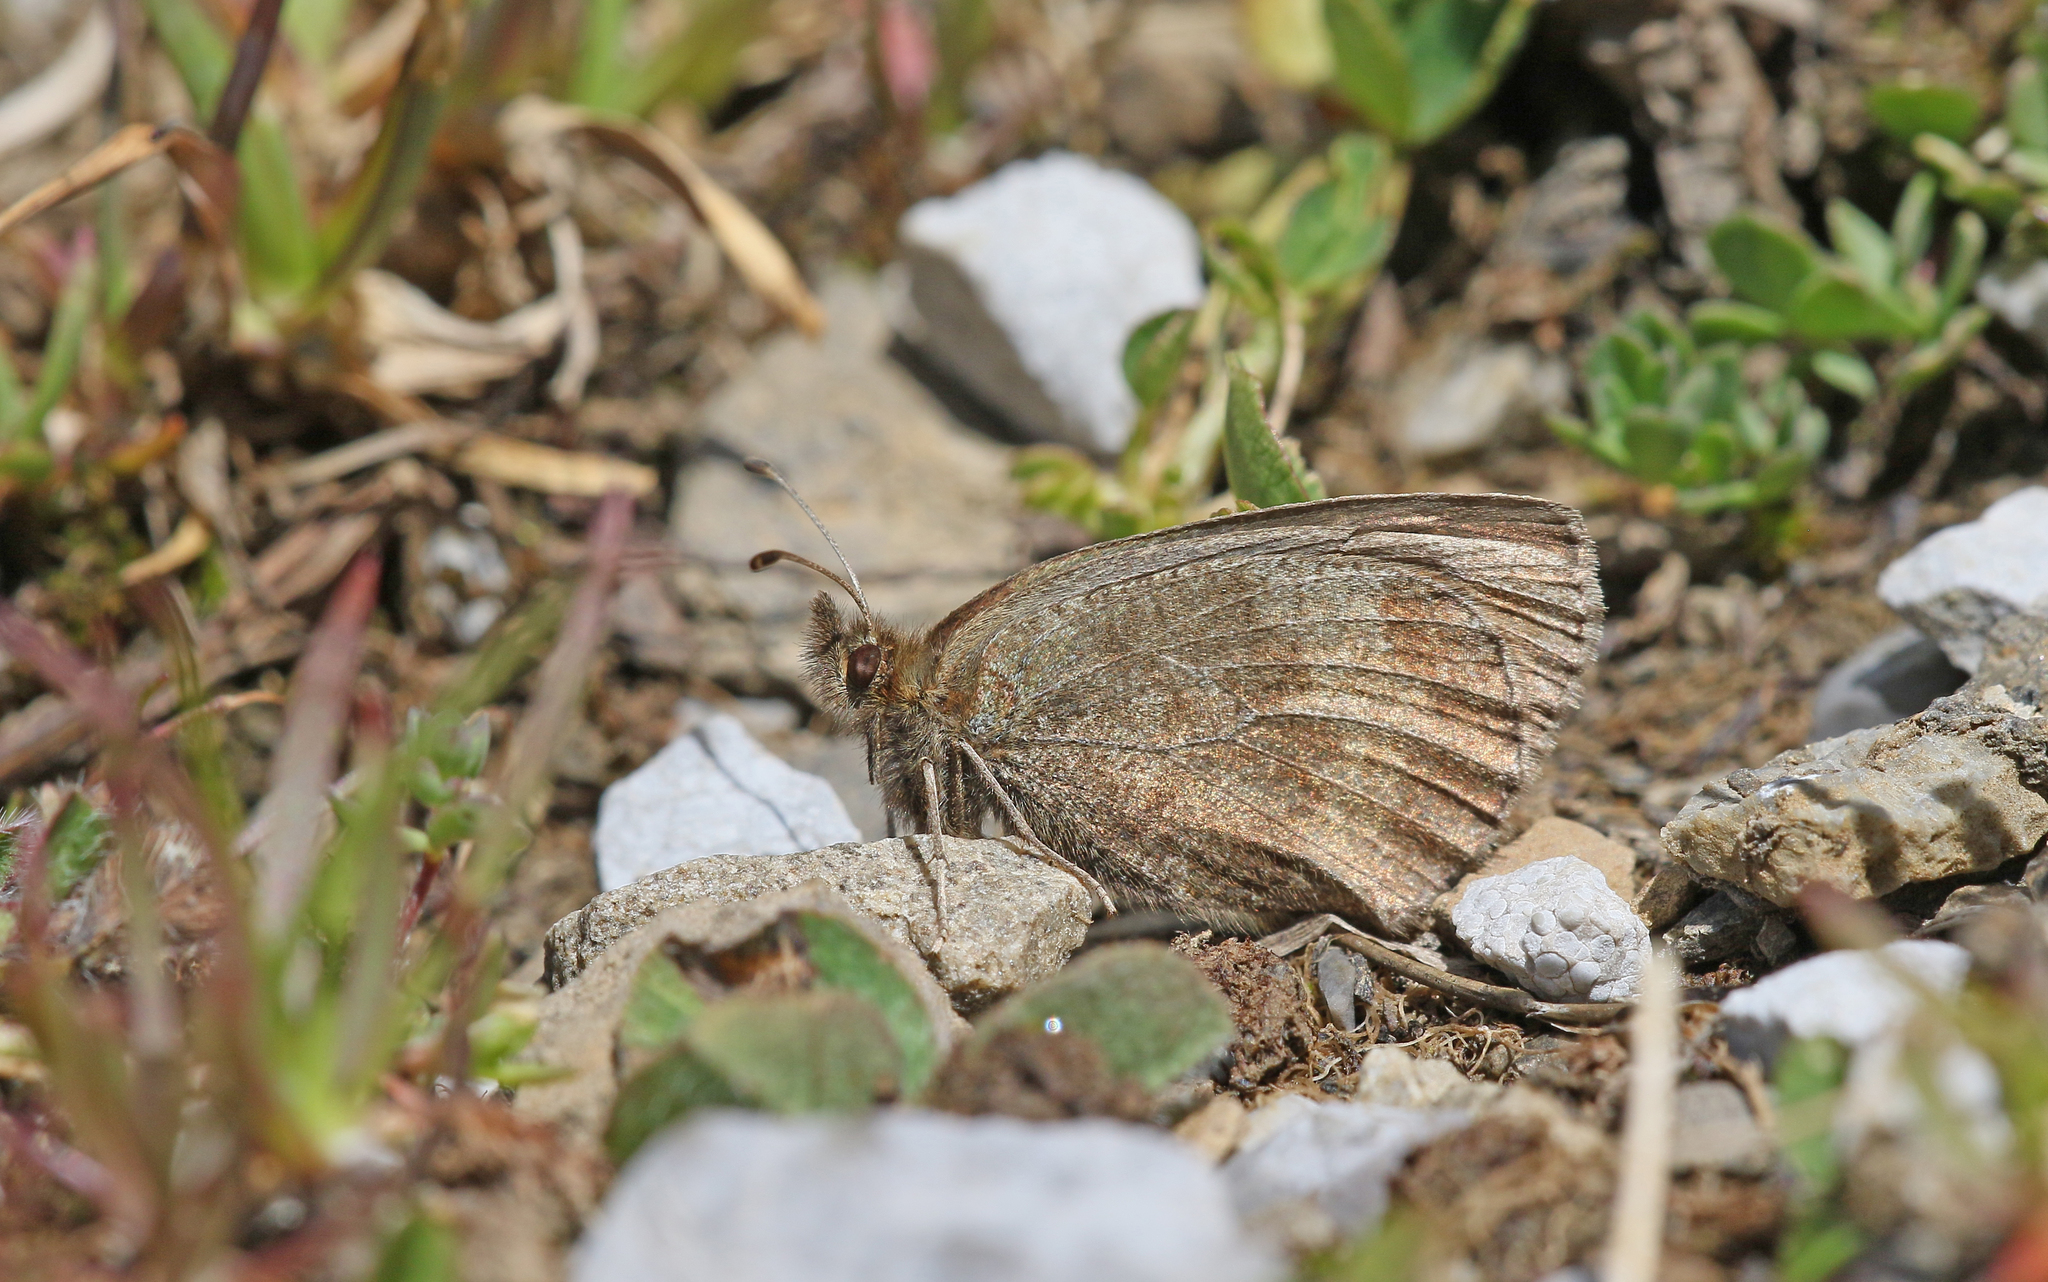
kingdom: Animalia
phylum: Arthropoda
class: Insecta
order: Lepidoptera
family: Nymphalidae
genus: Erebia
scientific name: Erebia mnestra
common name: Mnestra’s ringlet
